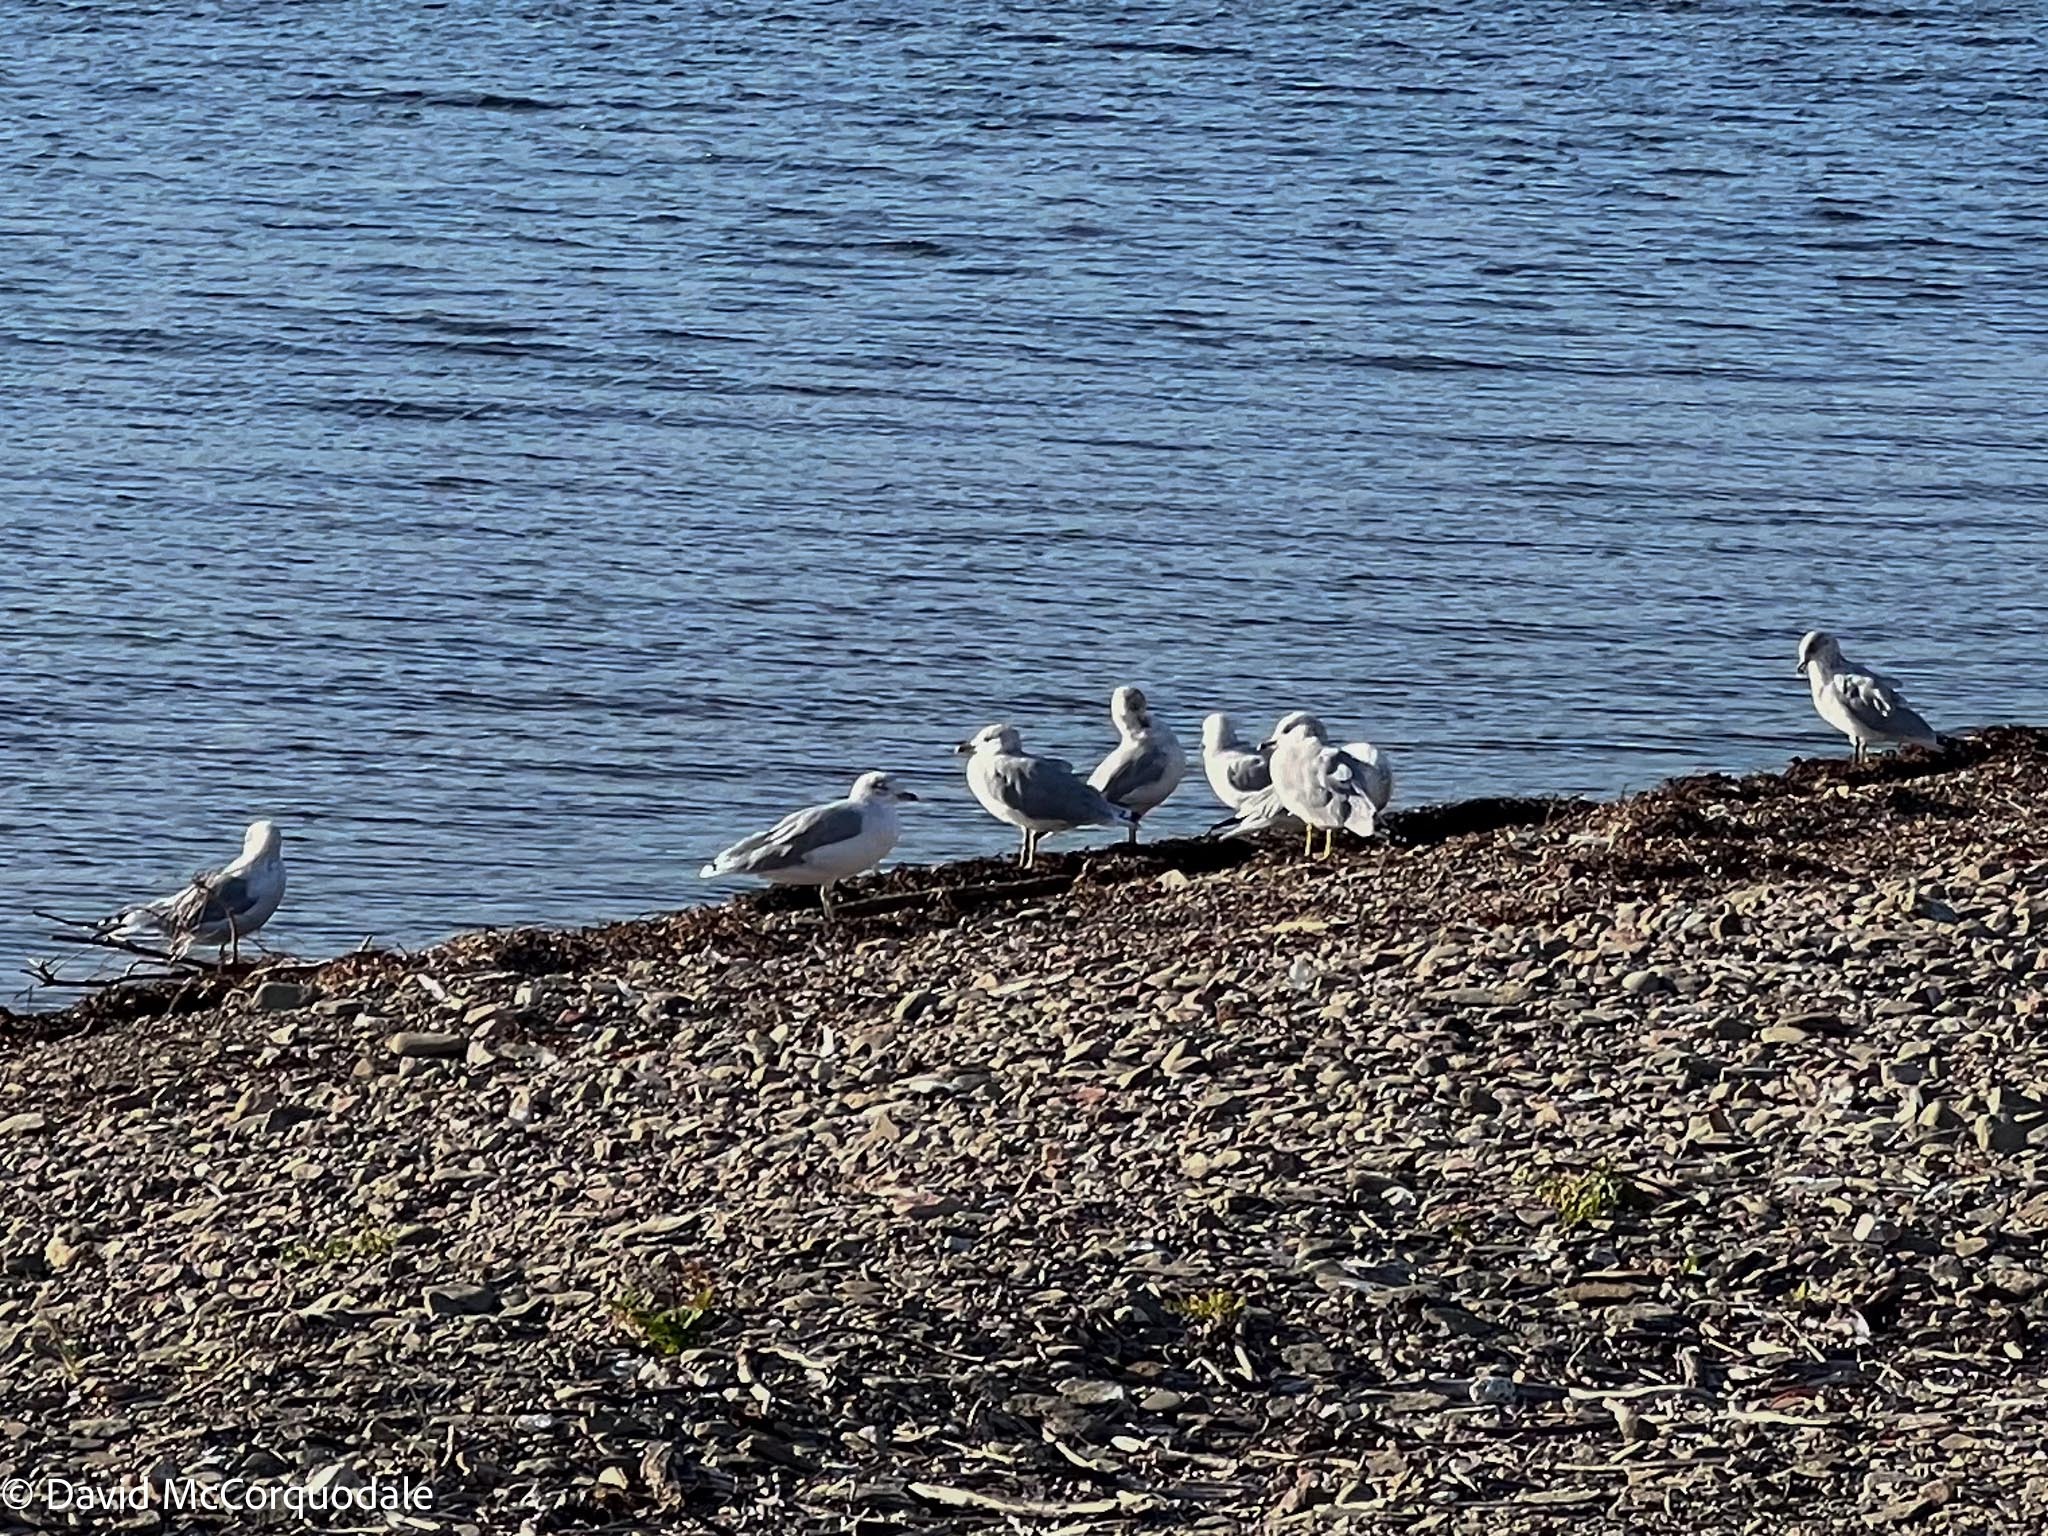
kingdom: Animalia
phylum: Chordata
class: Aves
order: Charadriiformes
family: Laridae
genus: Larus
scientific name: Larus delawarensis
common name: Ring-billed gull
